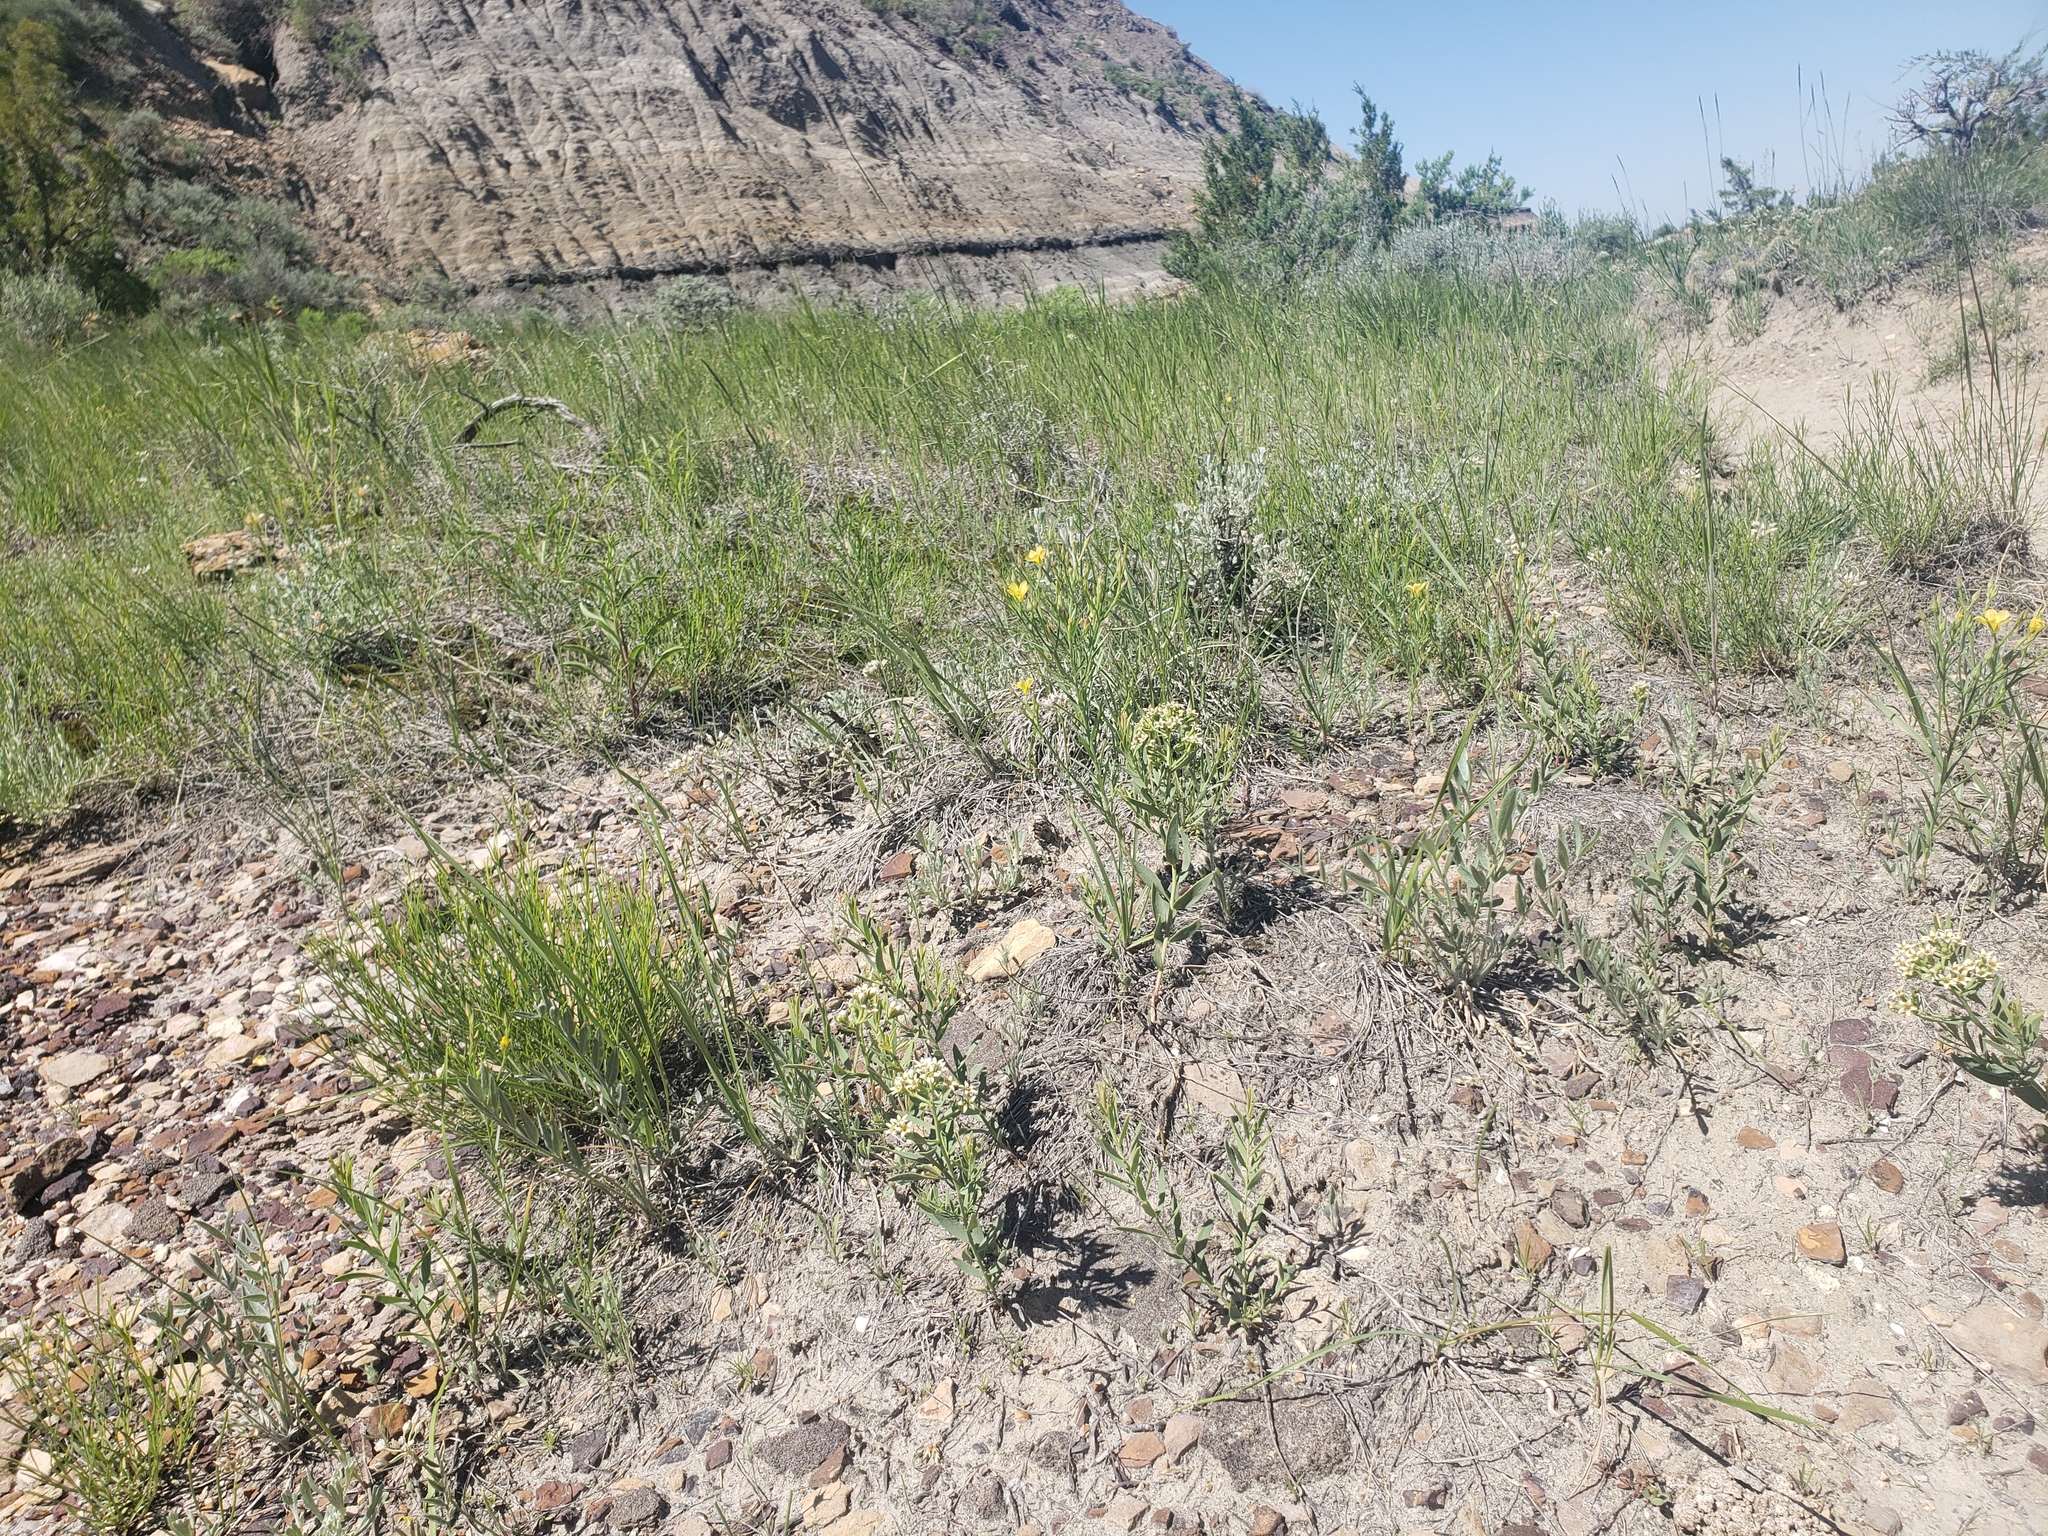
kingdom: Plantae
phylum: Tracheophyta
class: Magnoliopsida
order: Santalales
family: Comandraceae
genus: Comandra
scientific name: Comandra umbellata
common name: Bastard toadflax
